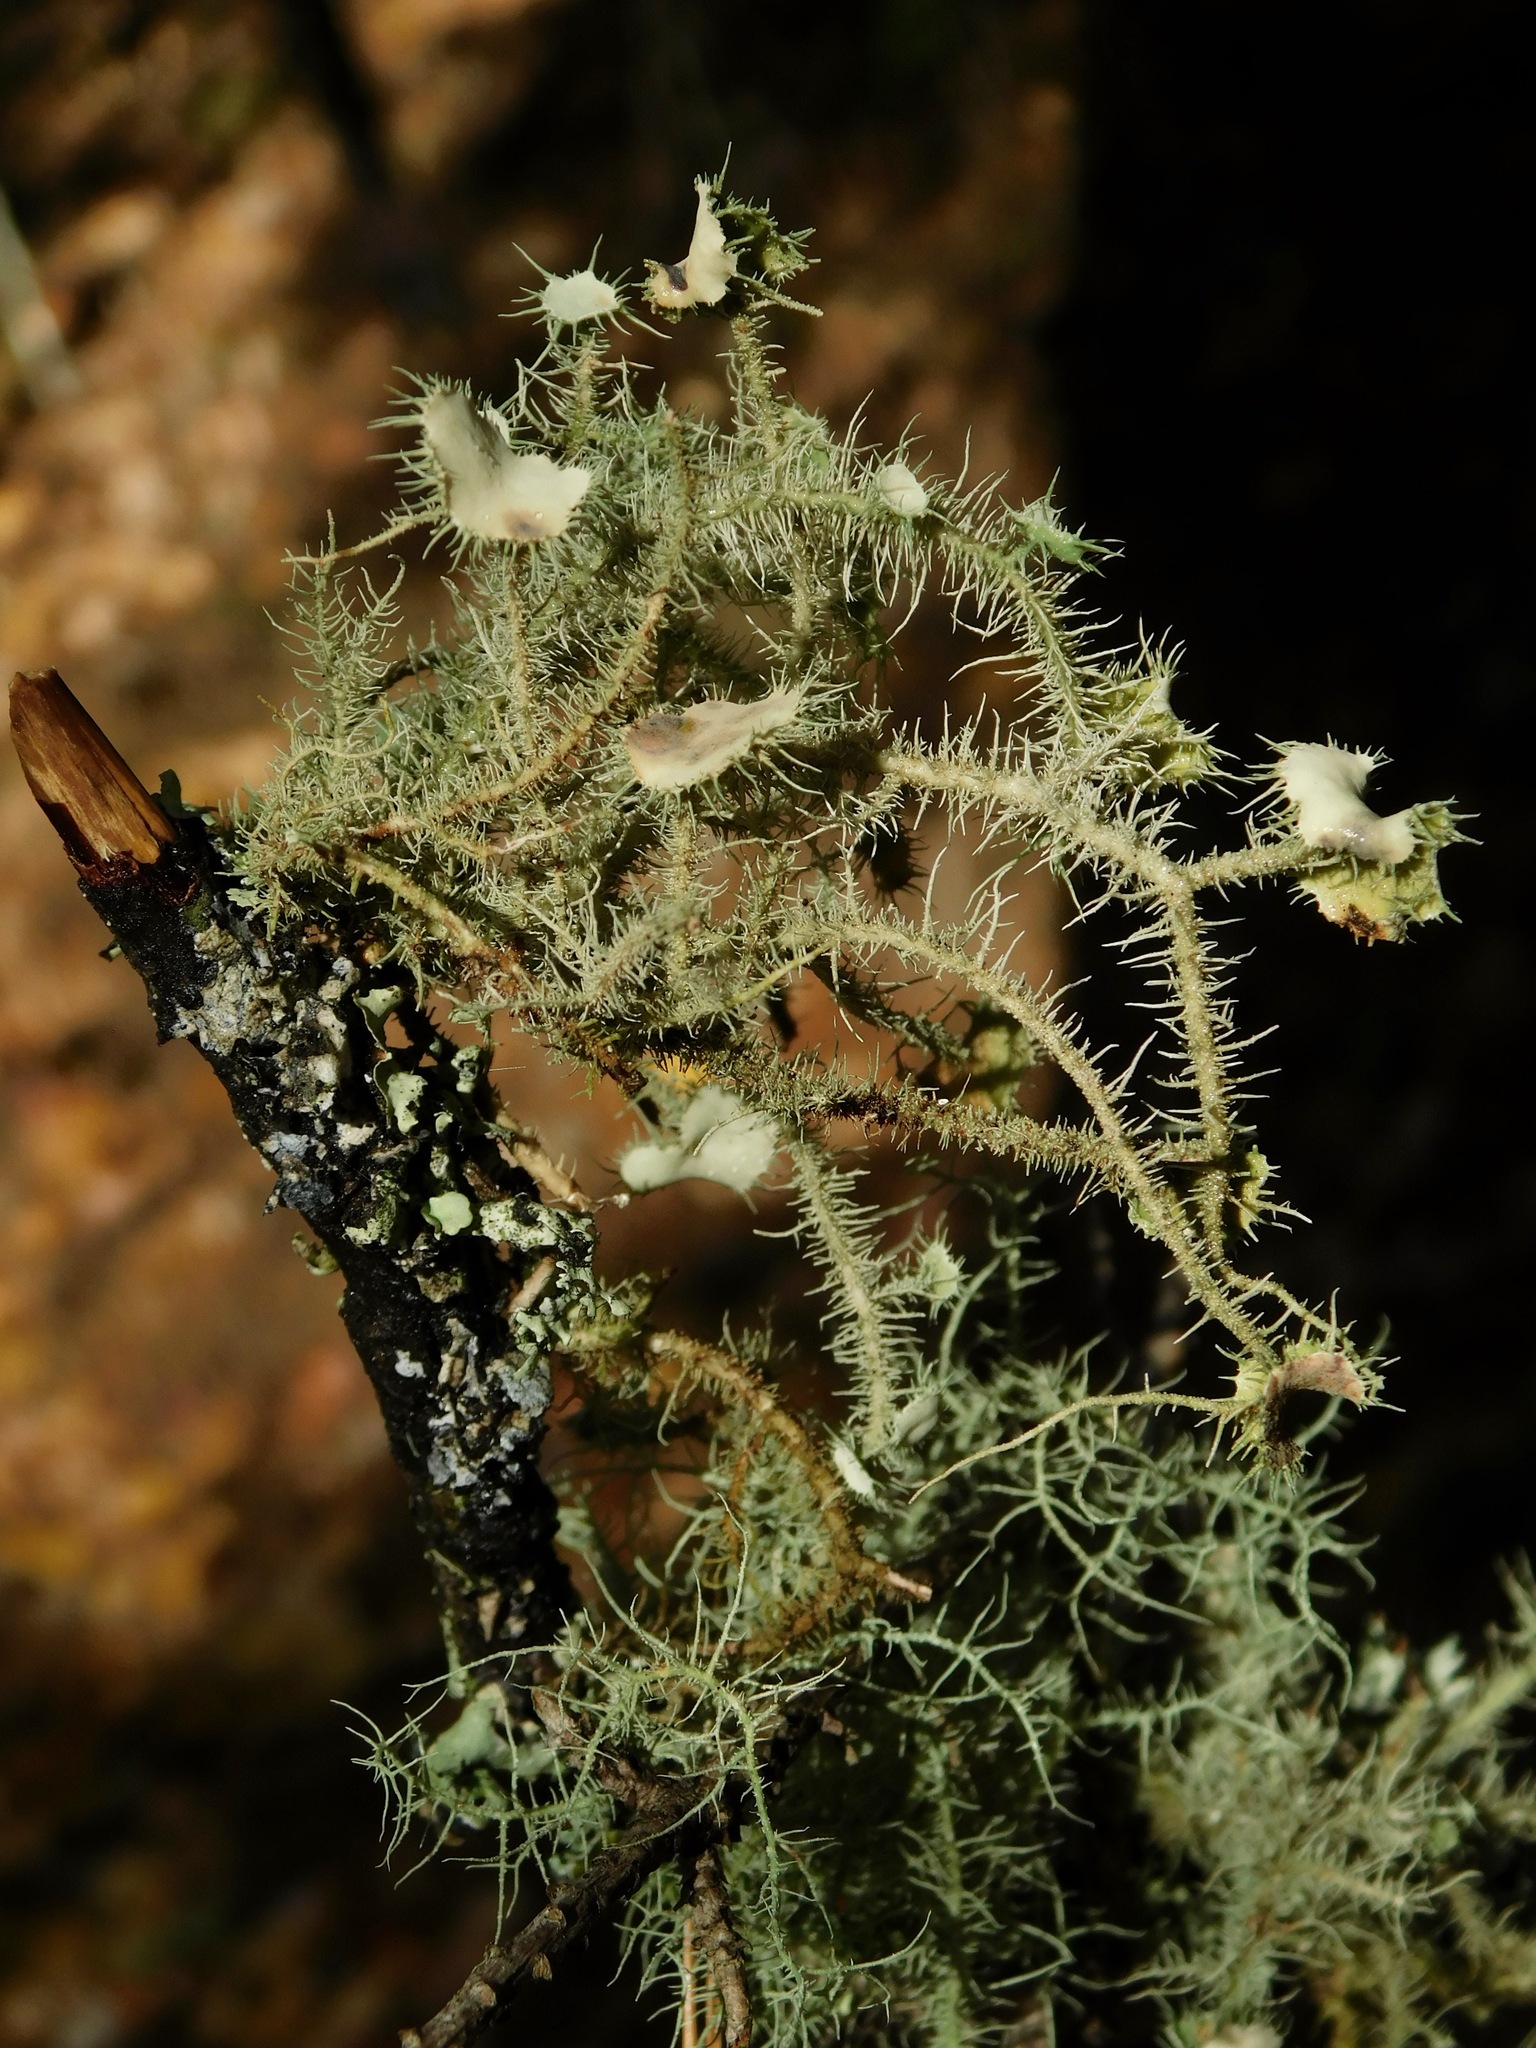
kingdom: Fungi
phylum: Ascomycota
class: Lecanoromycetes
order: Lecanorales
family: Parmeliaceae
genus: Usnea
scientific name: Usnea strigosa
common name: Bushy beard lichen
